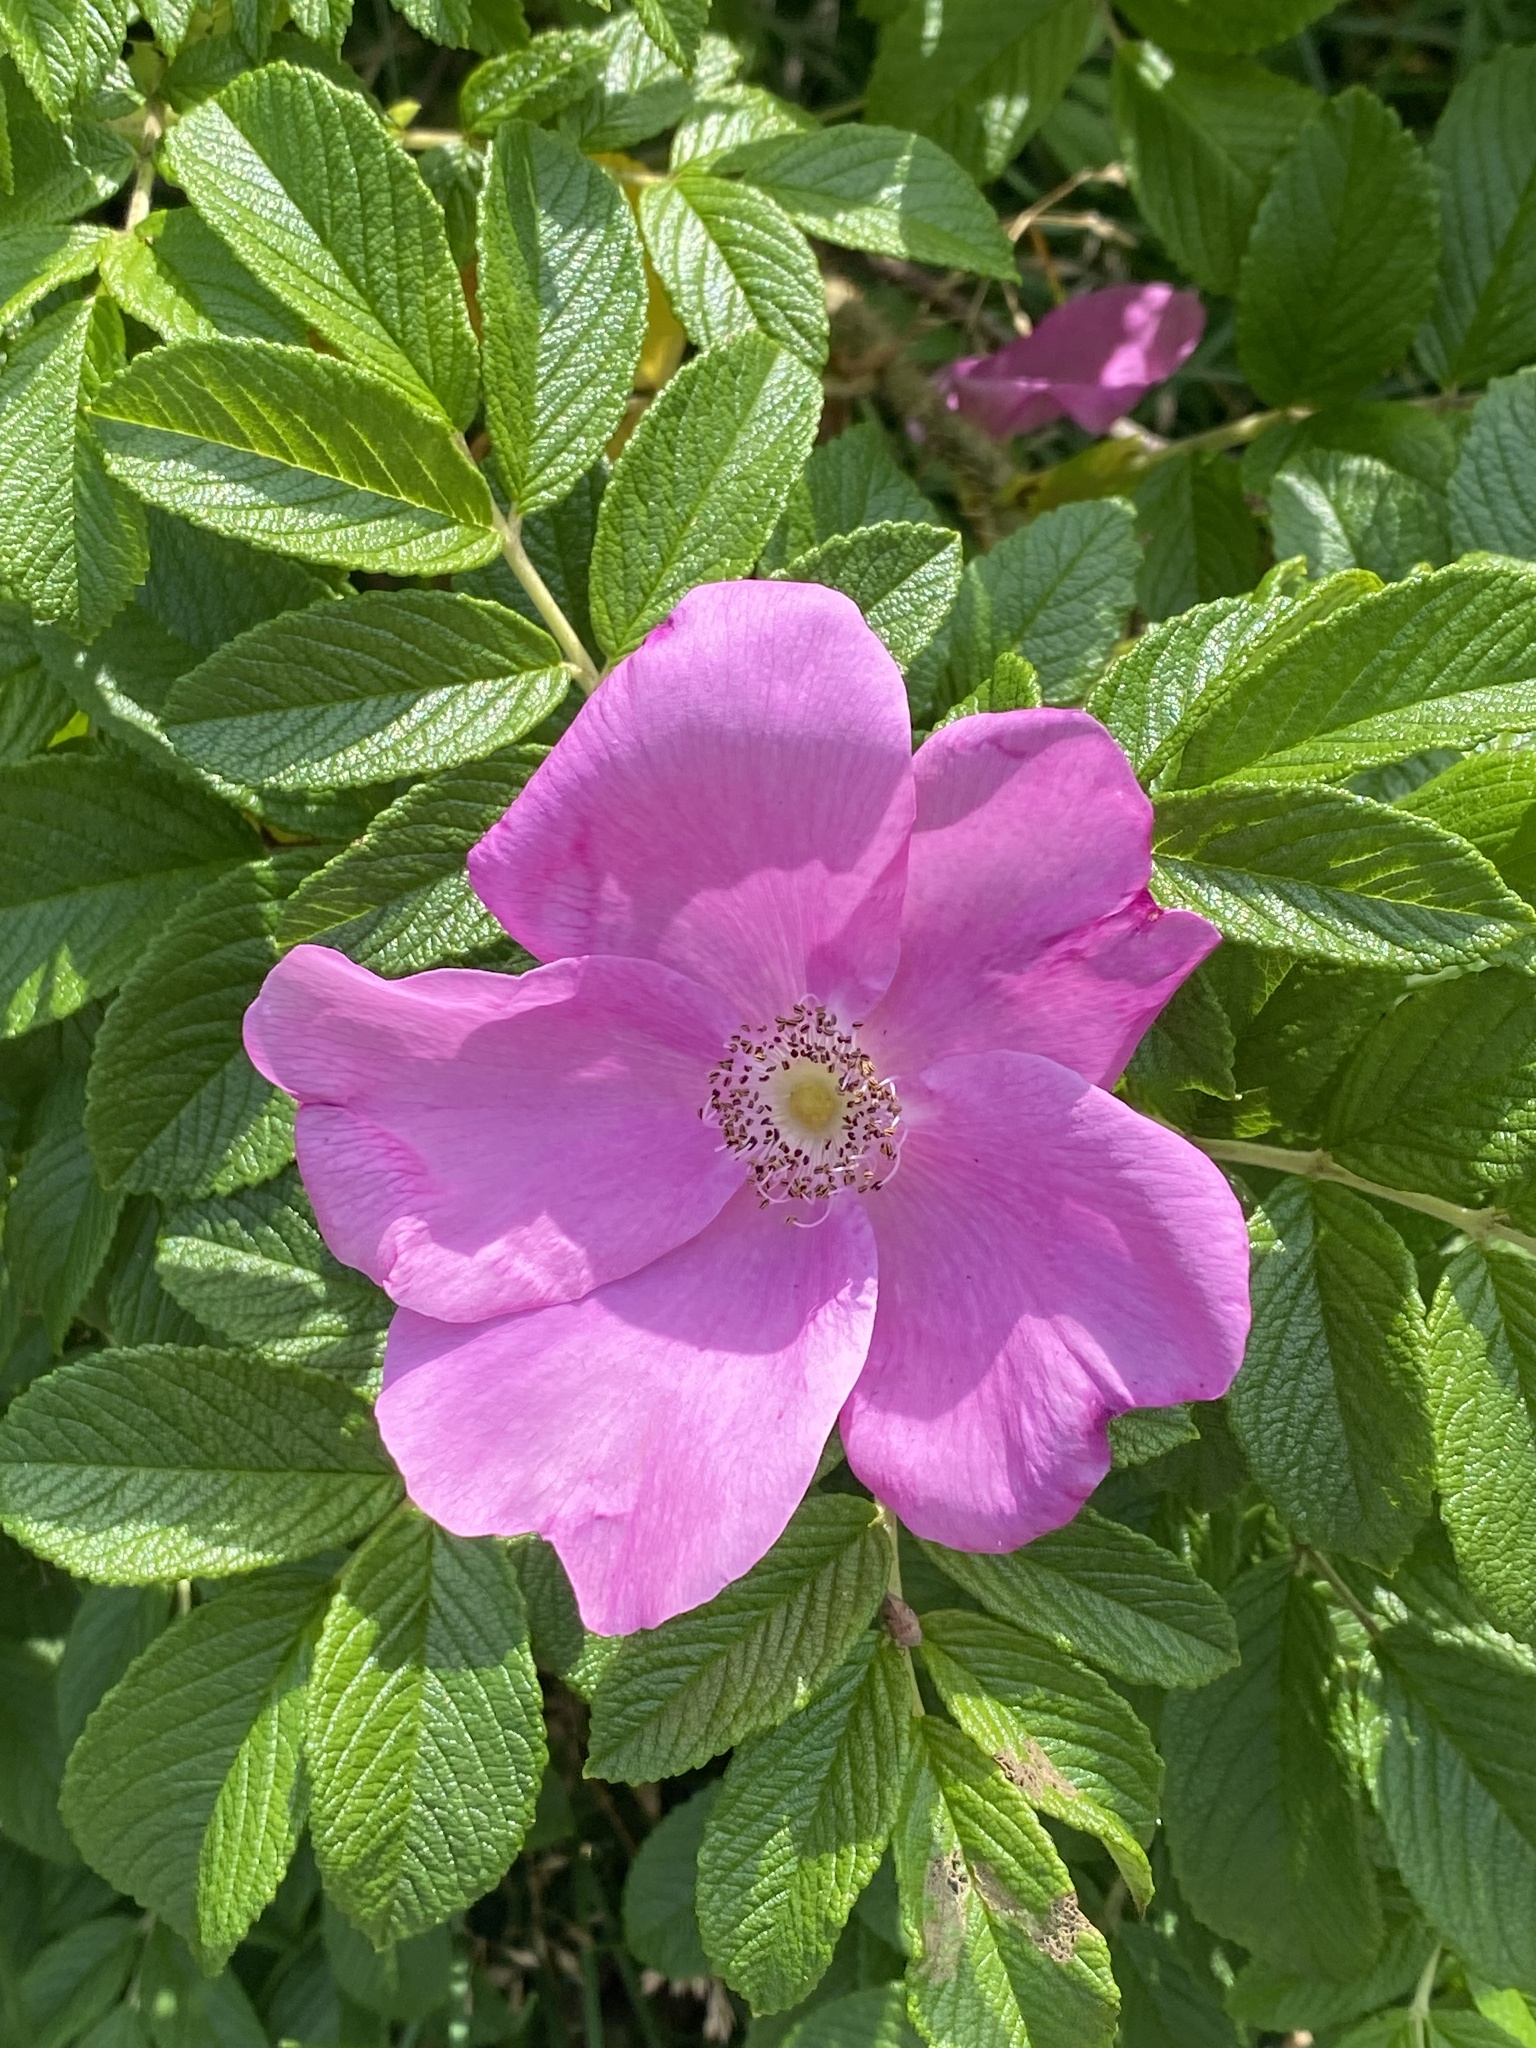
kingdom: Plantae
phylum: Tracheophyta
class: Magnoliopsida
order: Rosales
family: Rosaceae
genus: Rosa
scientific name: Rosa rugosa
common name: Japanese rose
